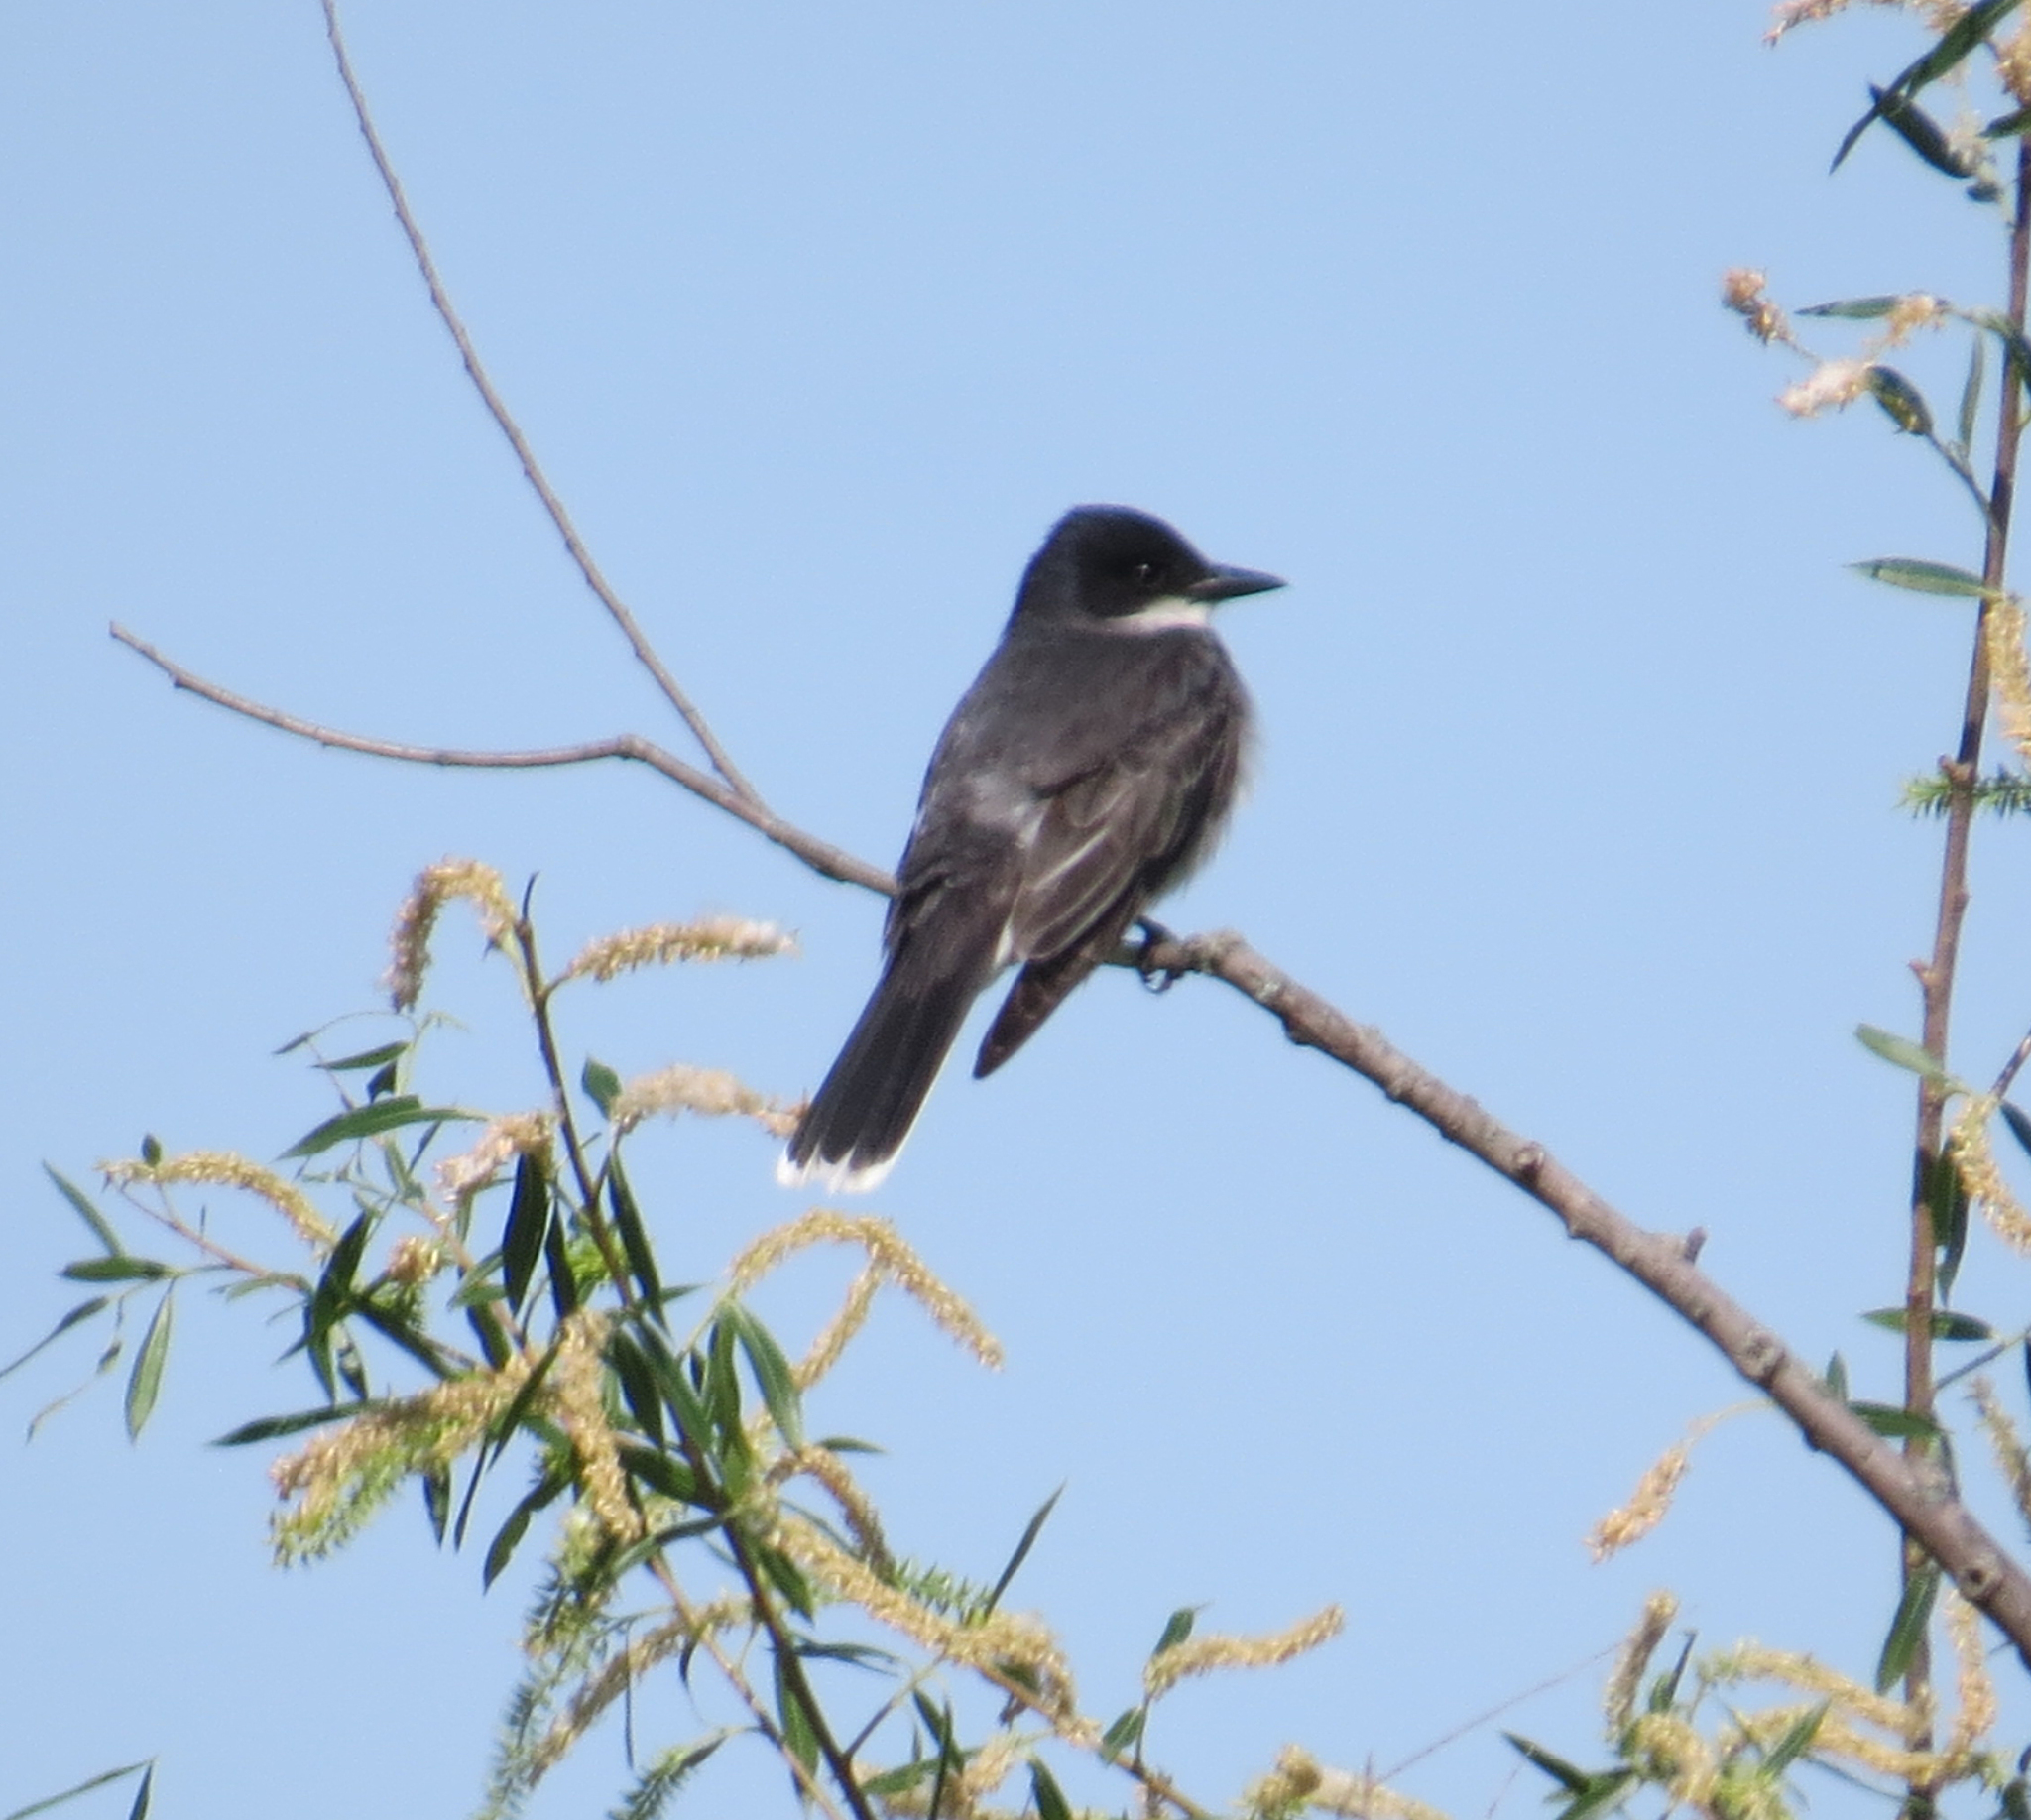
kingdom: Animalia
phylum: Chordata
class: Aves
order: Passeriformes
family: Tyrannidae
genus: Tyrannus
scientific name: Tyrannus tyrannus
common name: Eastern kingbird
